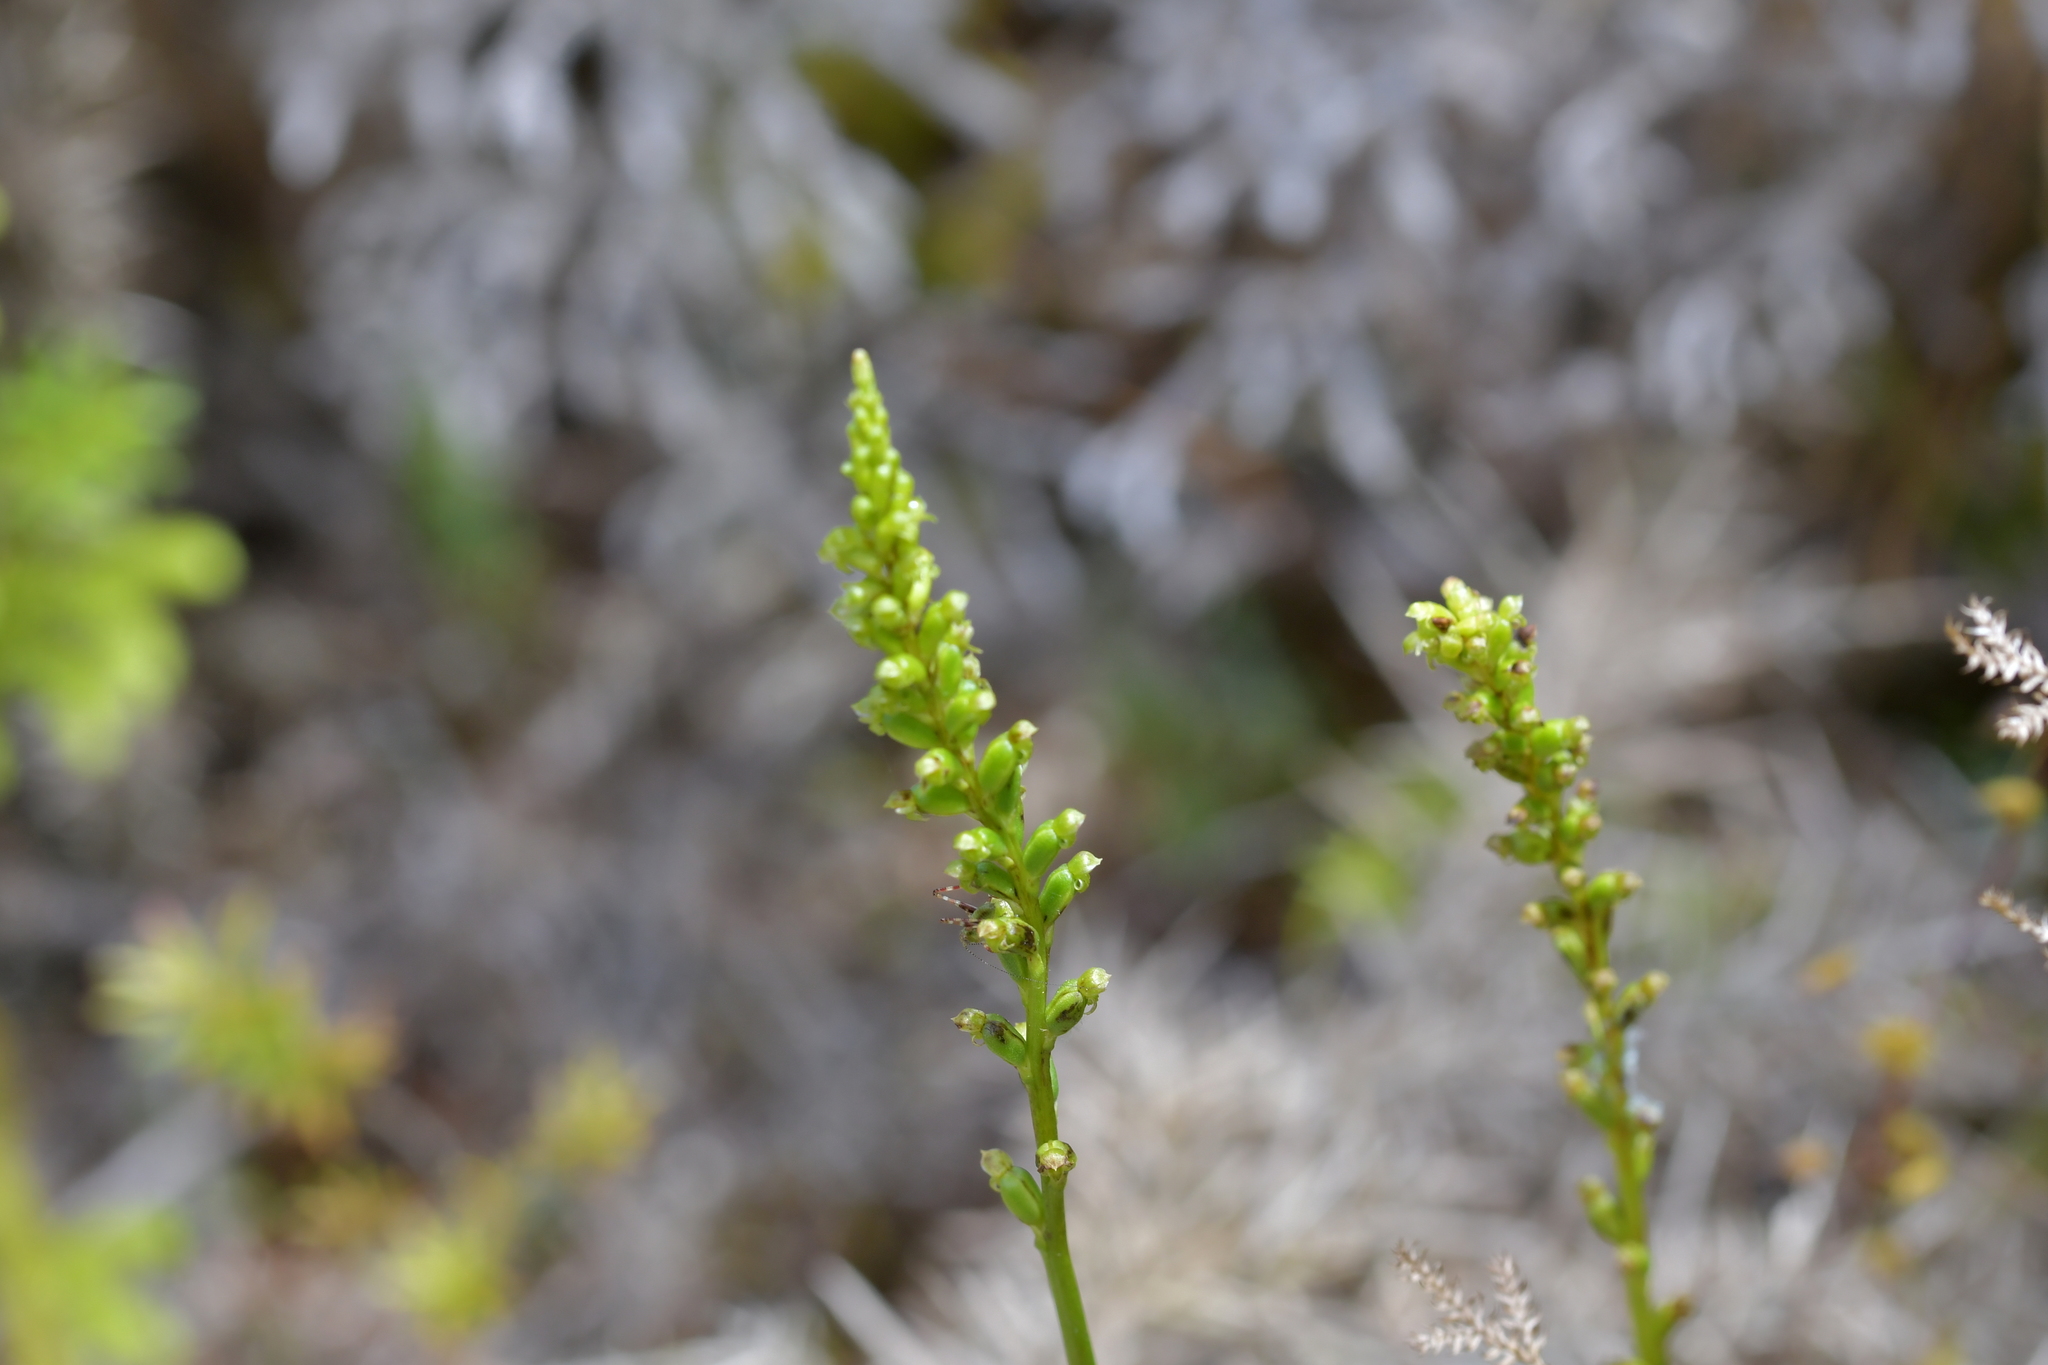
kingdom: Plantae
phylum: Tracheophyta
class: Liliopsida
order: Asparagales
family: Orchidaceae
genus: Microtis
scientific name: Microtis unifolia
